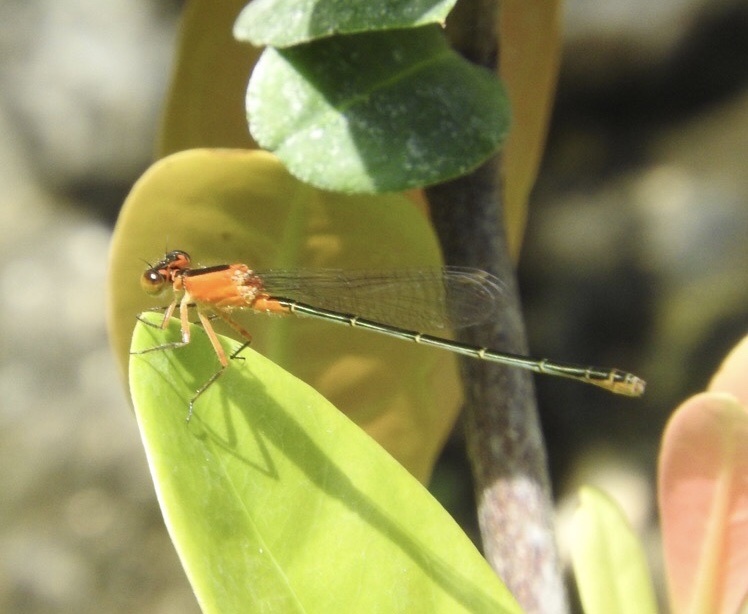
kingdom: Animalia
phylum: Arthropoda
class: Insecta
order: Odonata
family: Coenagrionidae
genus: Ischnura
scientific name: Ischnura ramburii
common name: Rambur's forktail
